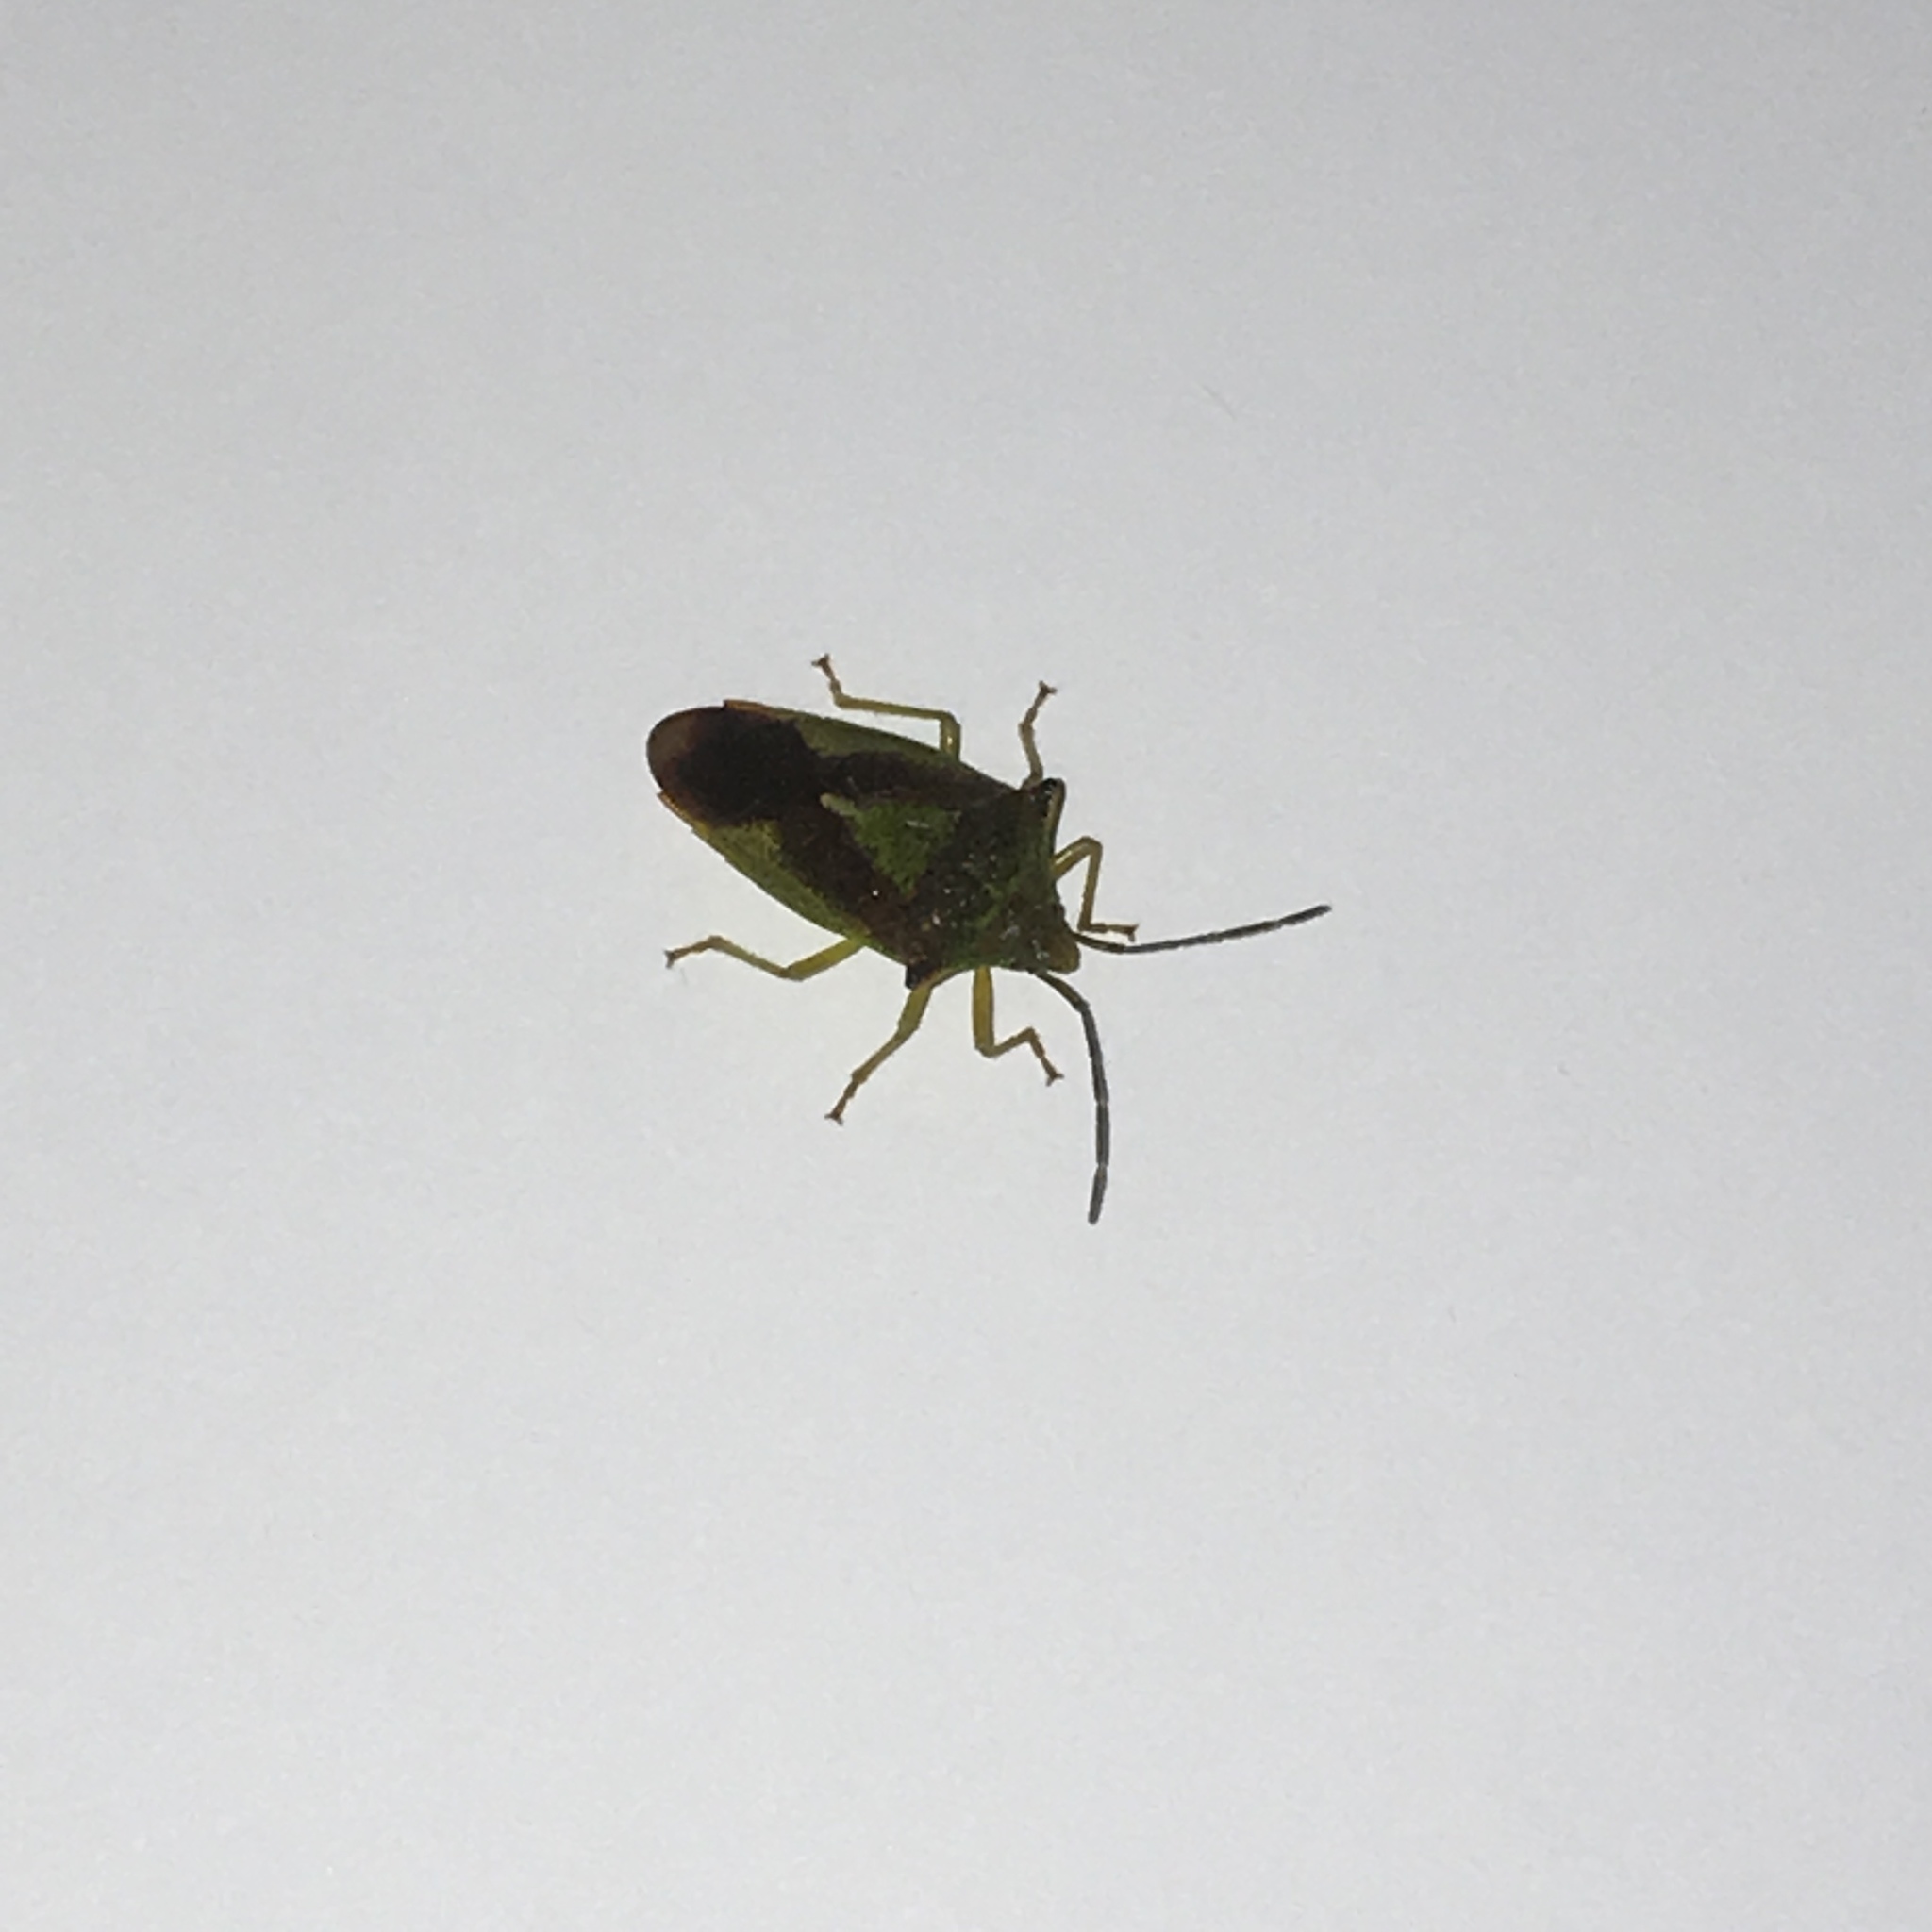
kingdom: Animalia
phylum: Arthropoda
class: Insecta
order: Hemiptera
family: Acanthosomatidae
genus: Acanthosoma
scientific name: Acanthosoma haemorrhoidale
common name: Hawthorn shieldbug
